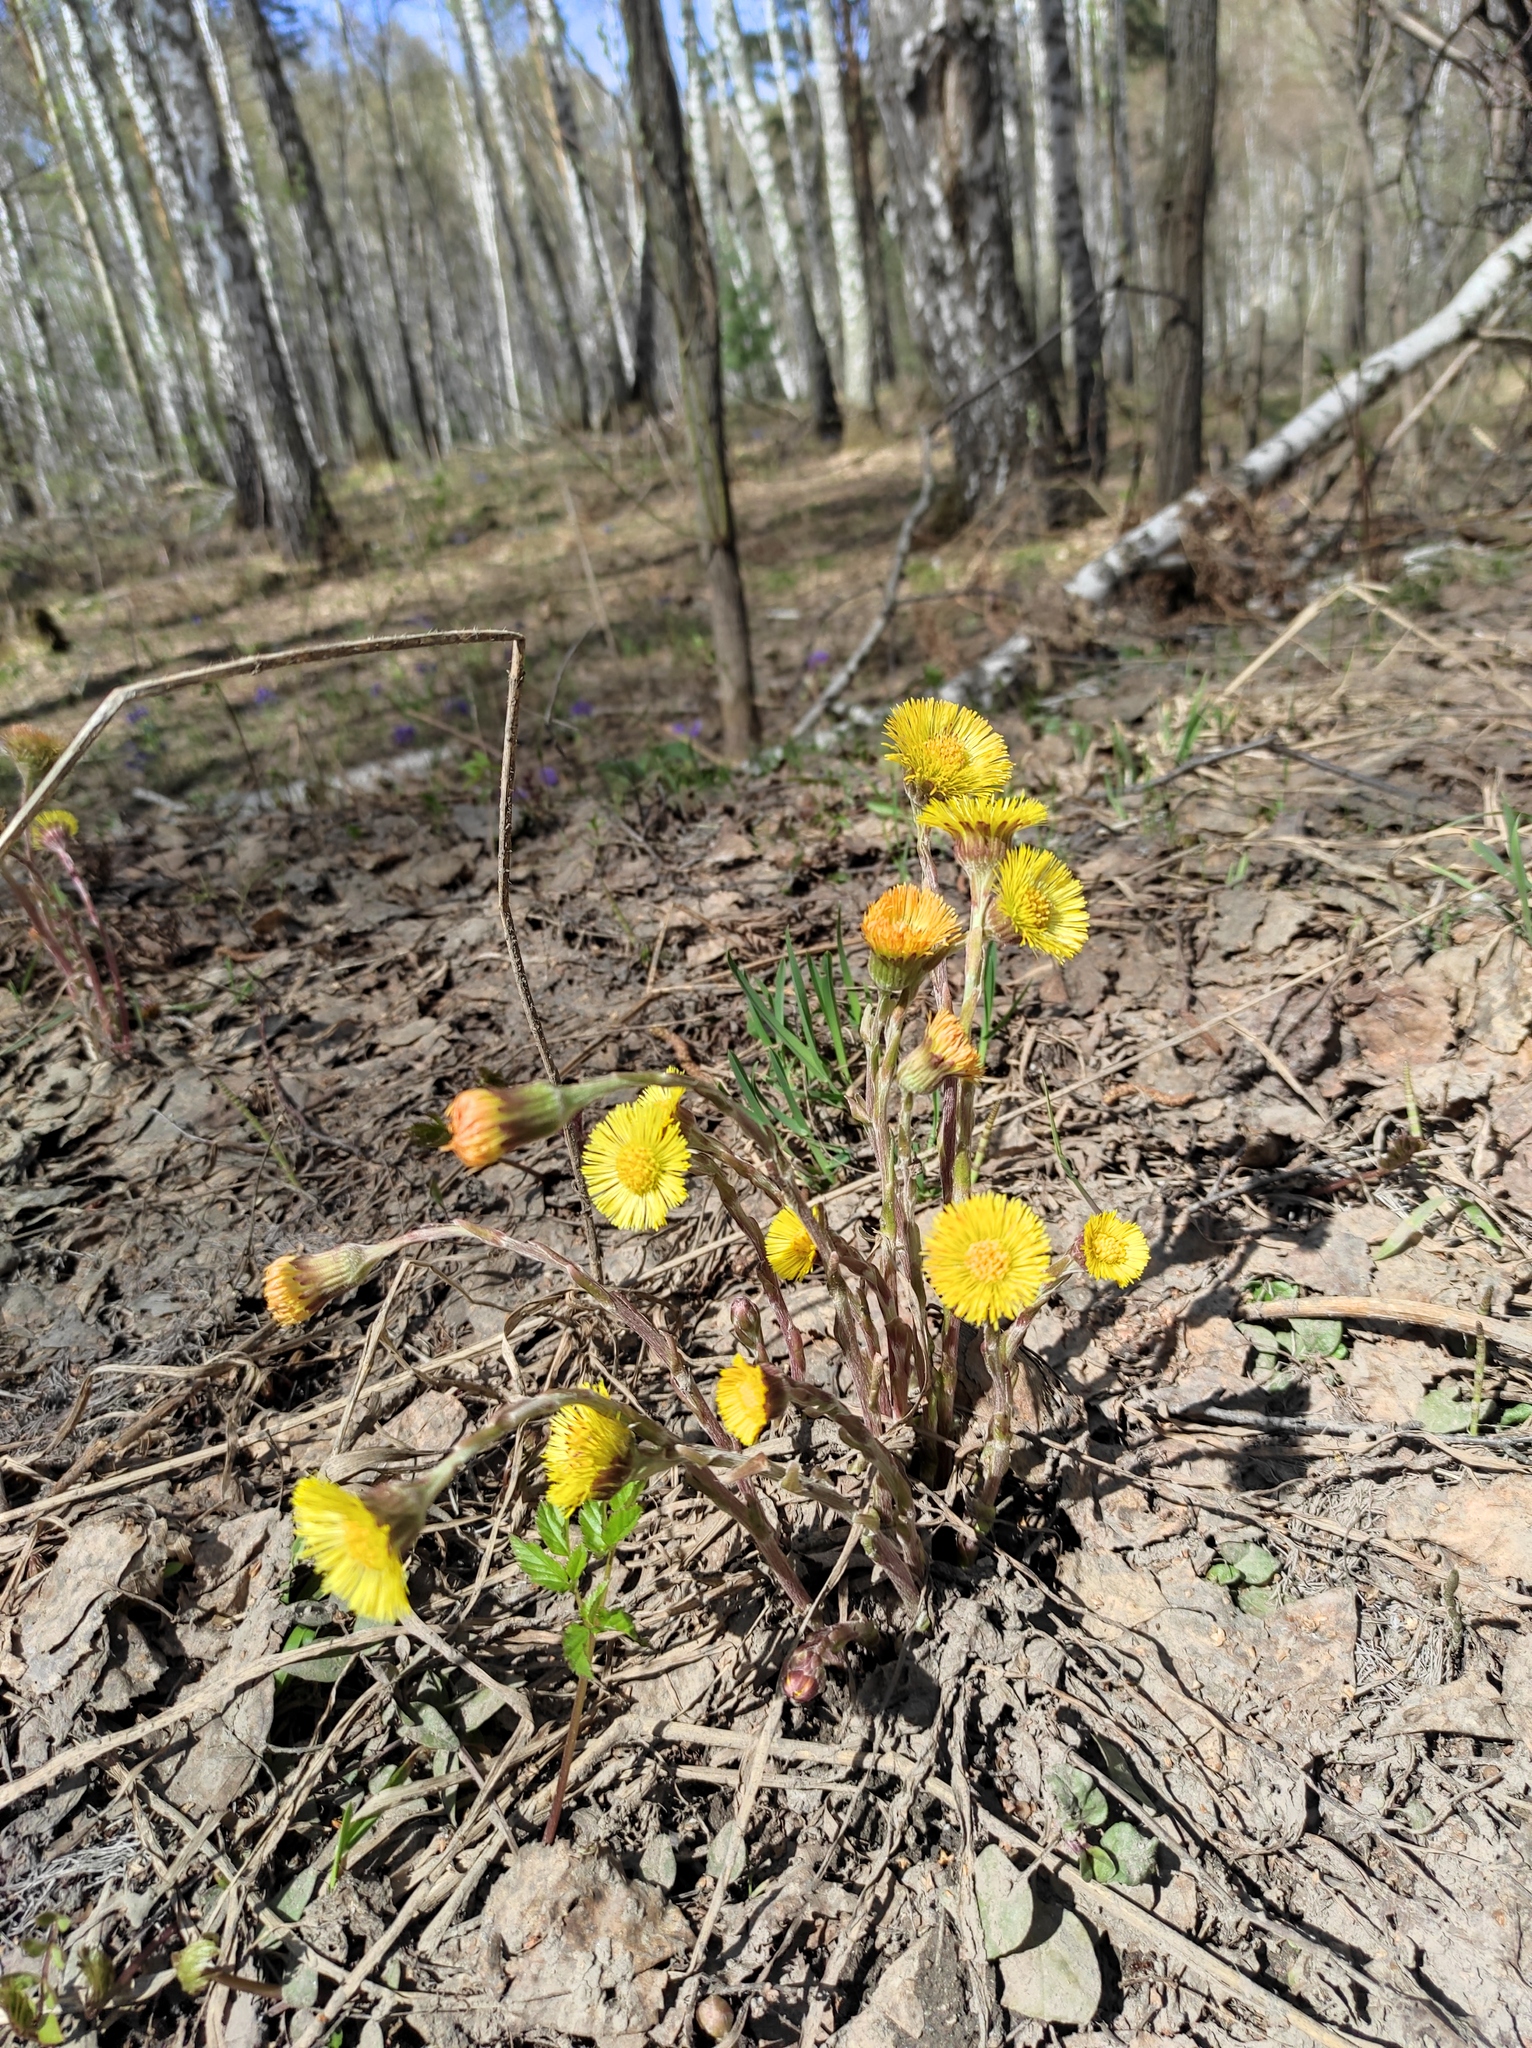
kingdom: Plantae
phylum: Tracheophyta
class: Magnoliopsida
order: Asterales
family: Asteraceae
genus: Tussilago
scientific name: Tussilago farfara
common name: Coltsfoot
